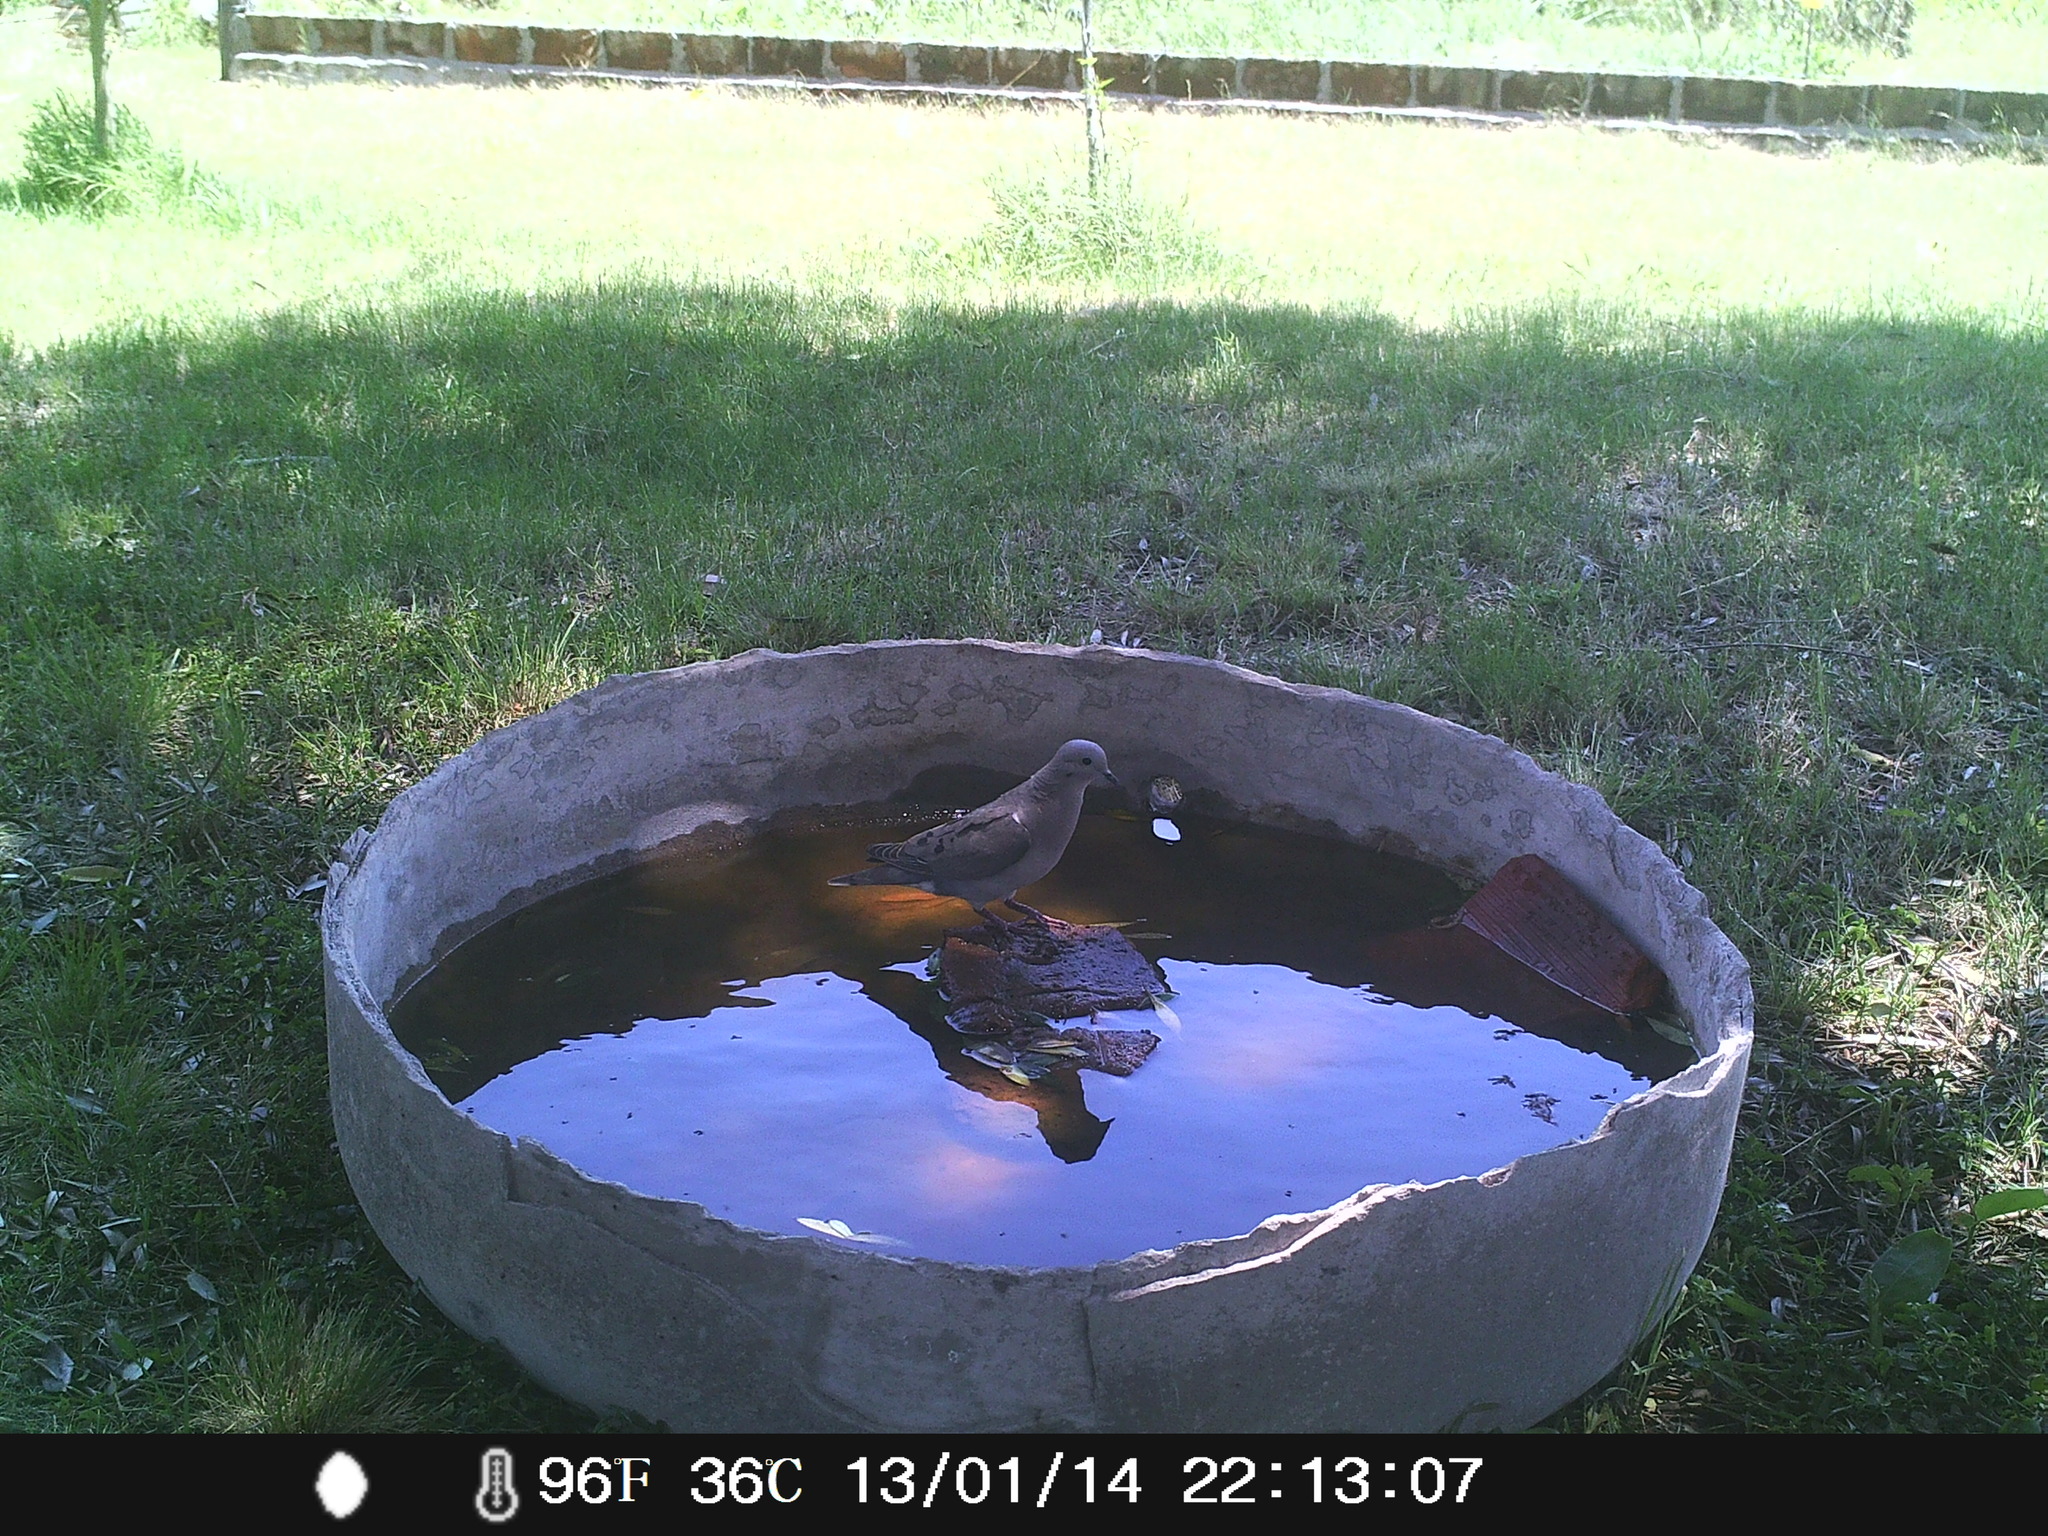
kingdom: Animalia
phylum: Chordata
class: Aves
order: Columbiformes
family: Columbidae
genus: Zenaida
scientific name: Zenaida auriculata
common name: Eared dove
